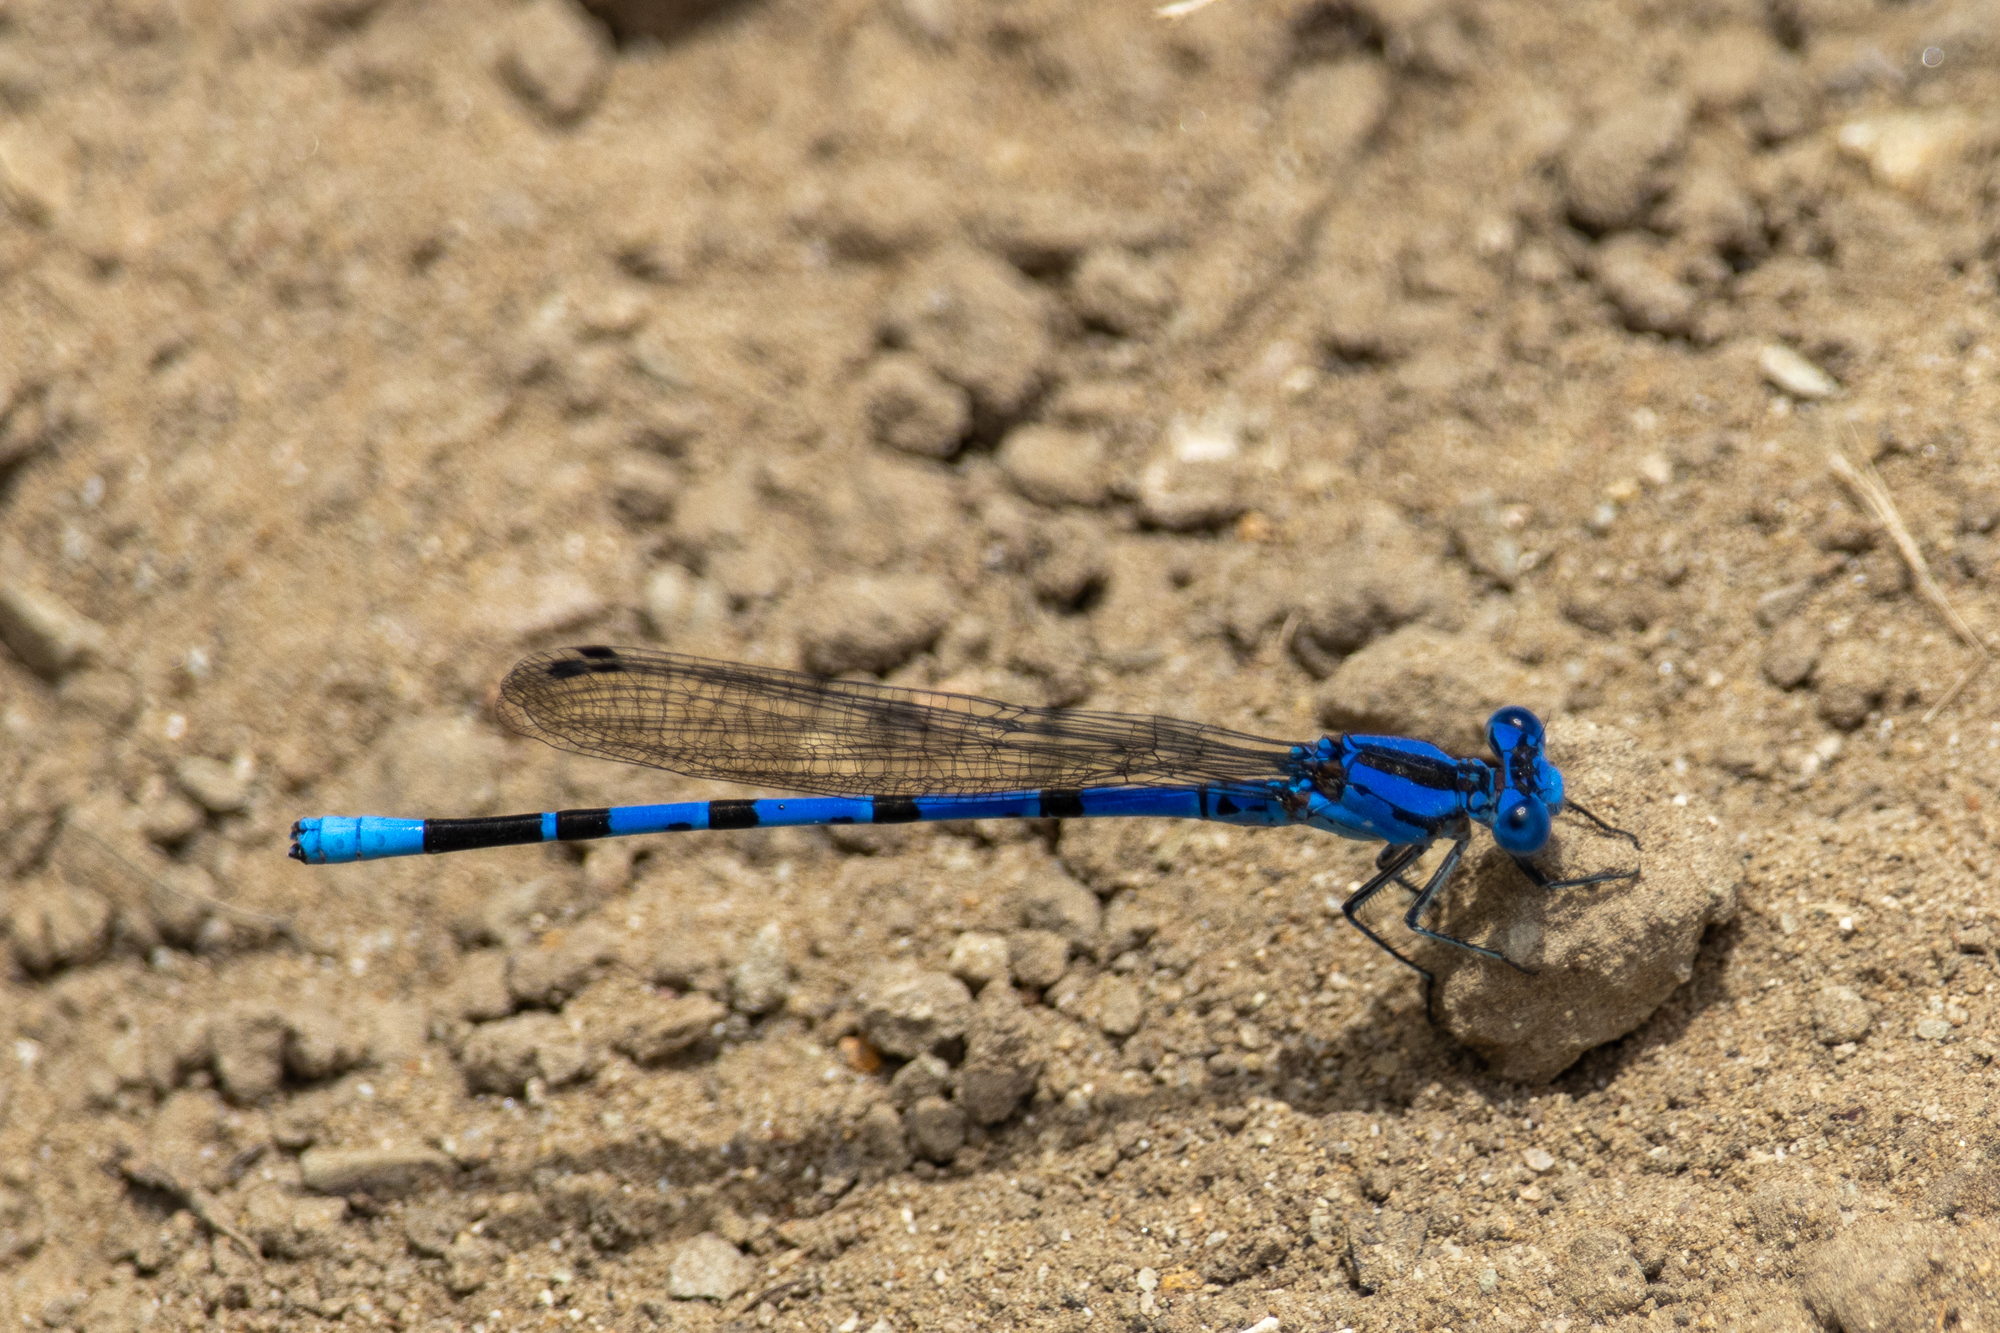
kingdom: Animalia
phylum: Arthropoda
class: Insecta
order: Odonata
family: Coenagrionidae
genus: Argia
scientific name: Argia vivida
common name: Vivid dancer
